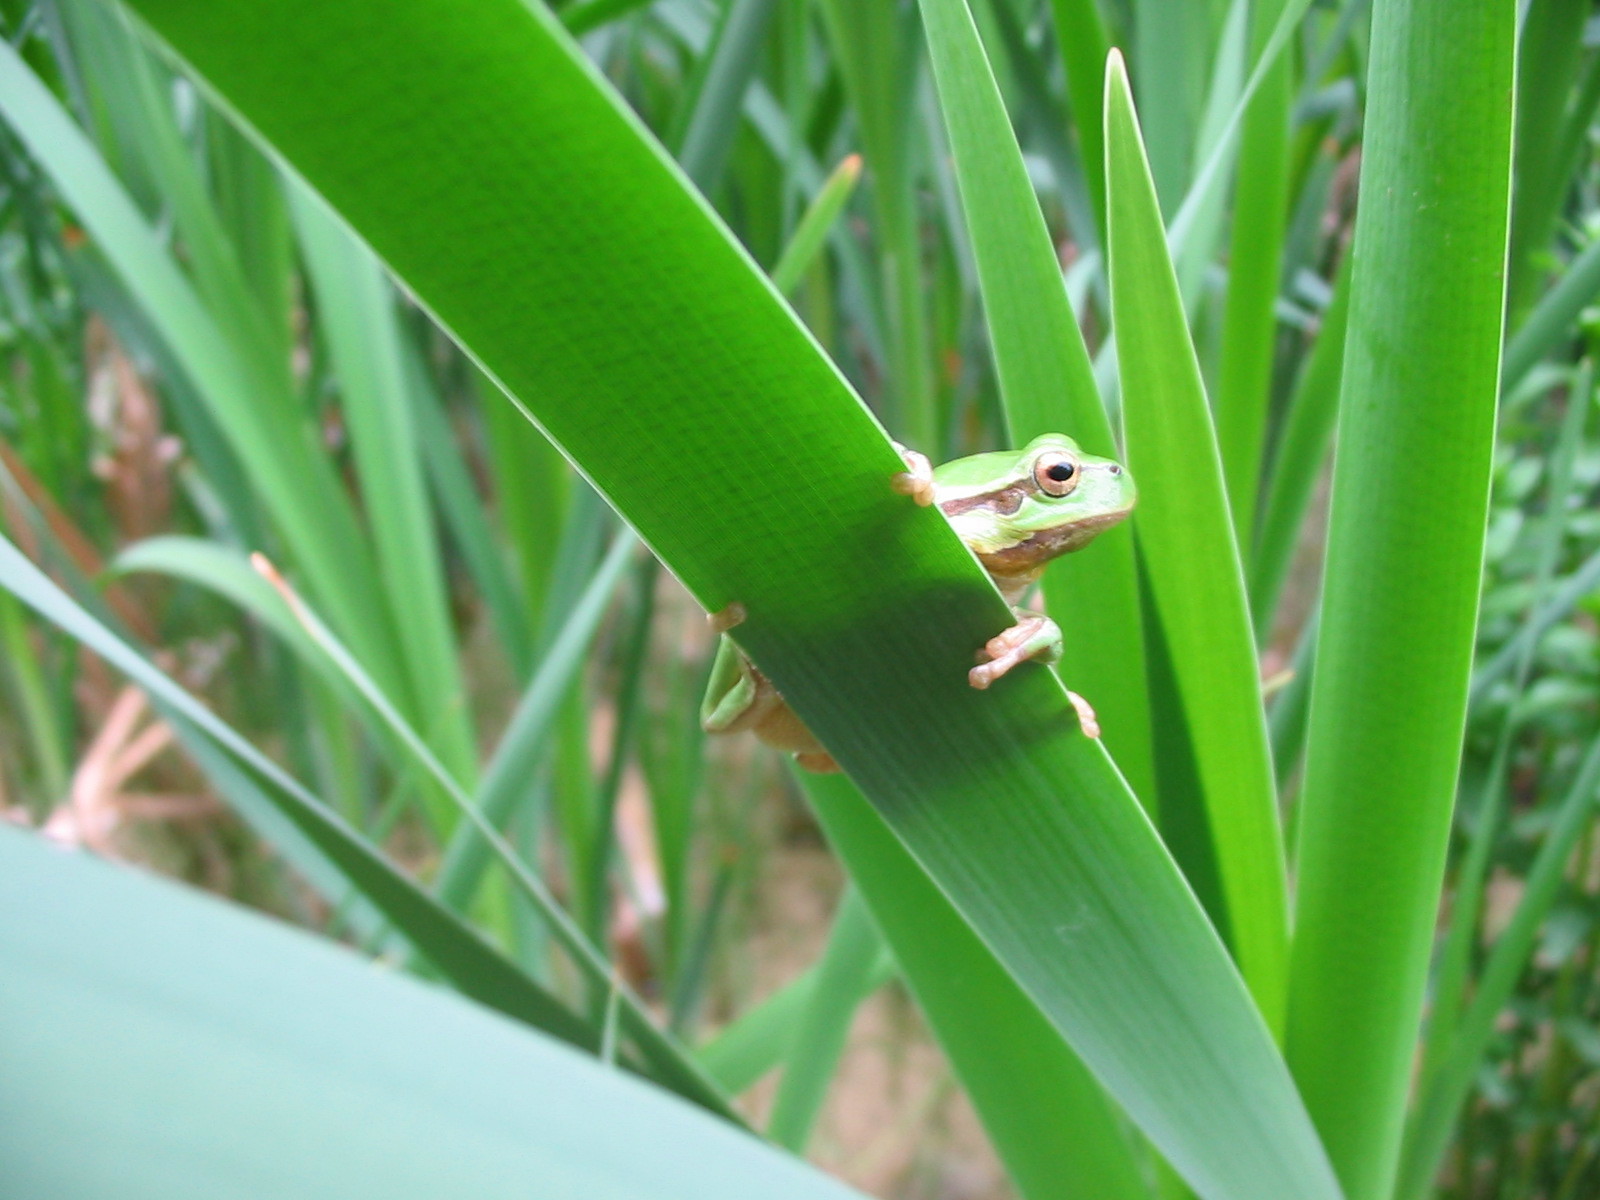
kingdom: Animalia
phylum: Chordata
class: Amphibia
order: Anura
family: Hylidae
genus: Hyla
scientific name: Hyla arborea
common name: Common tree frog
